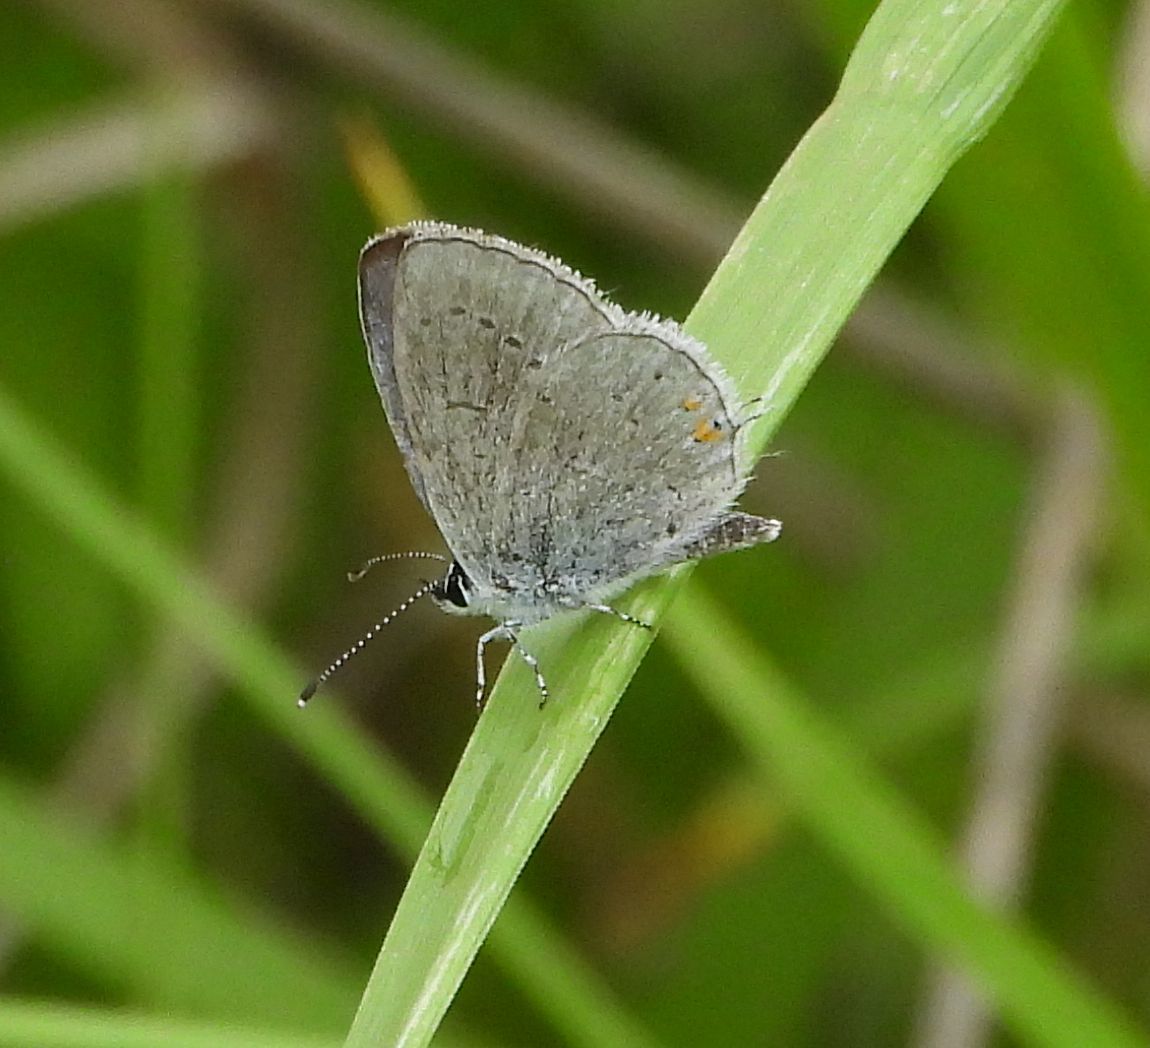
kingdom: Animalia
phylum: Arthropoda
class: Insecta
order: Lepidoptera
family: Lycaenidae
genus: Elkalyce
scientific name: Elkalyce comyntas
